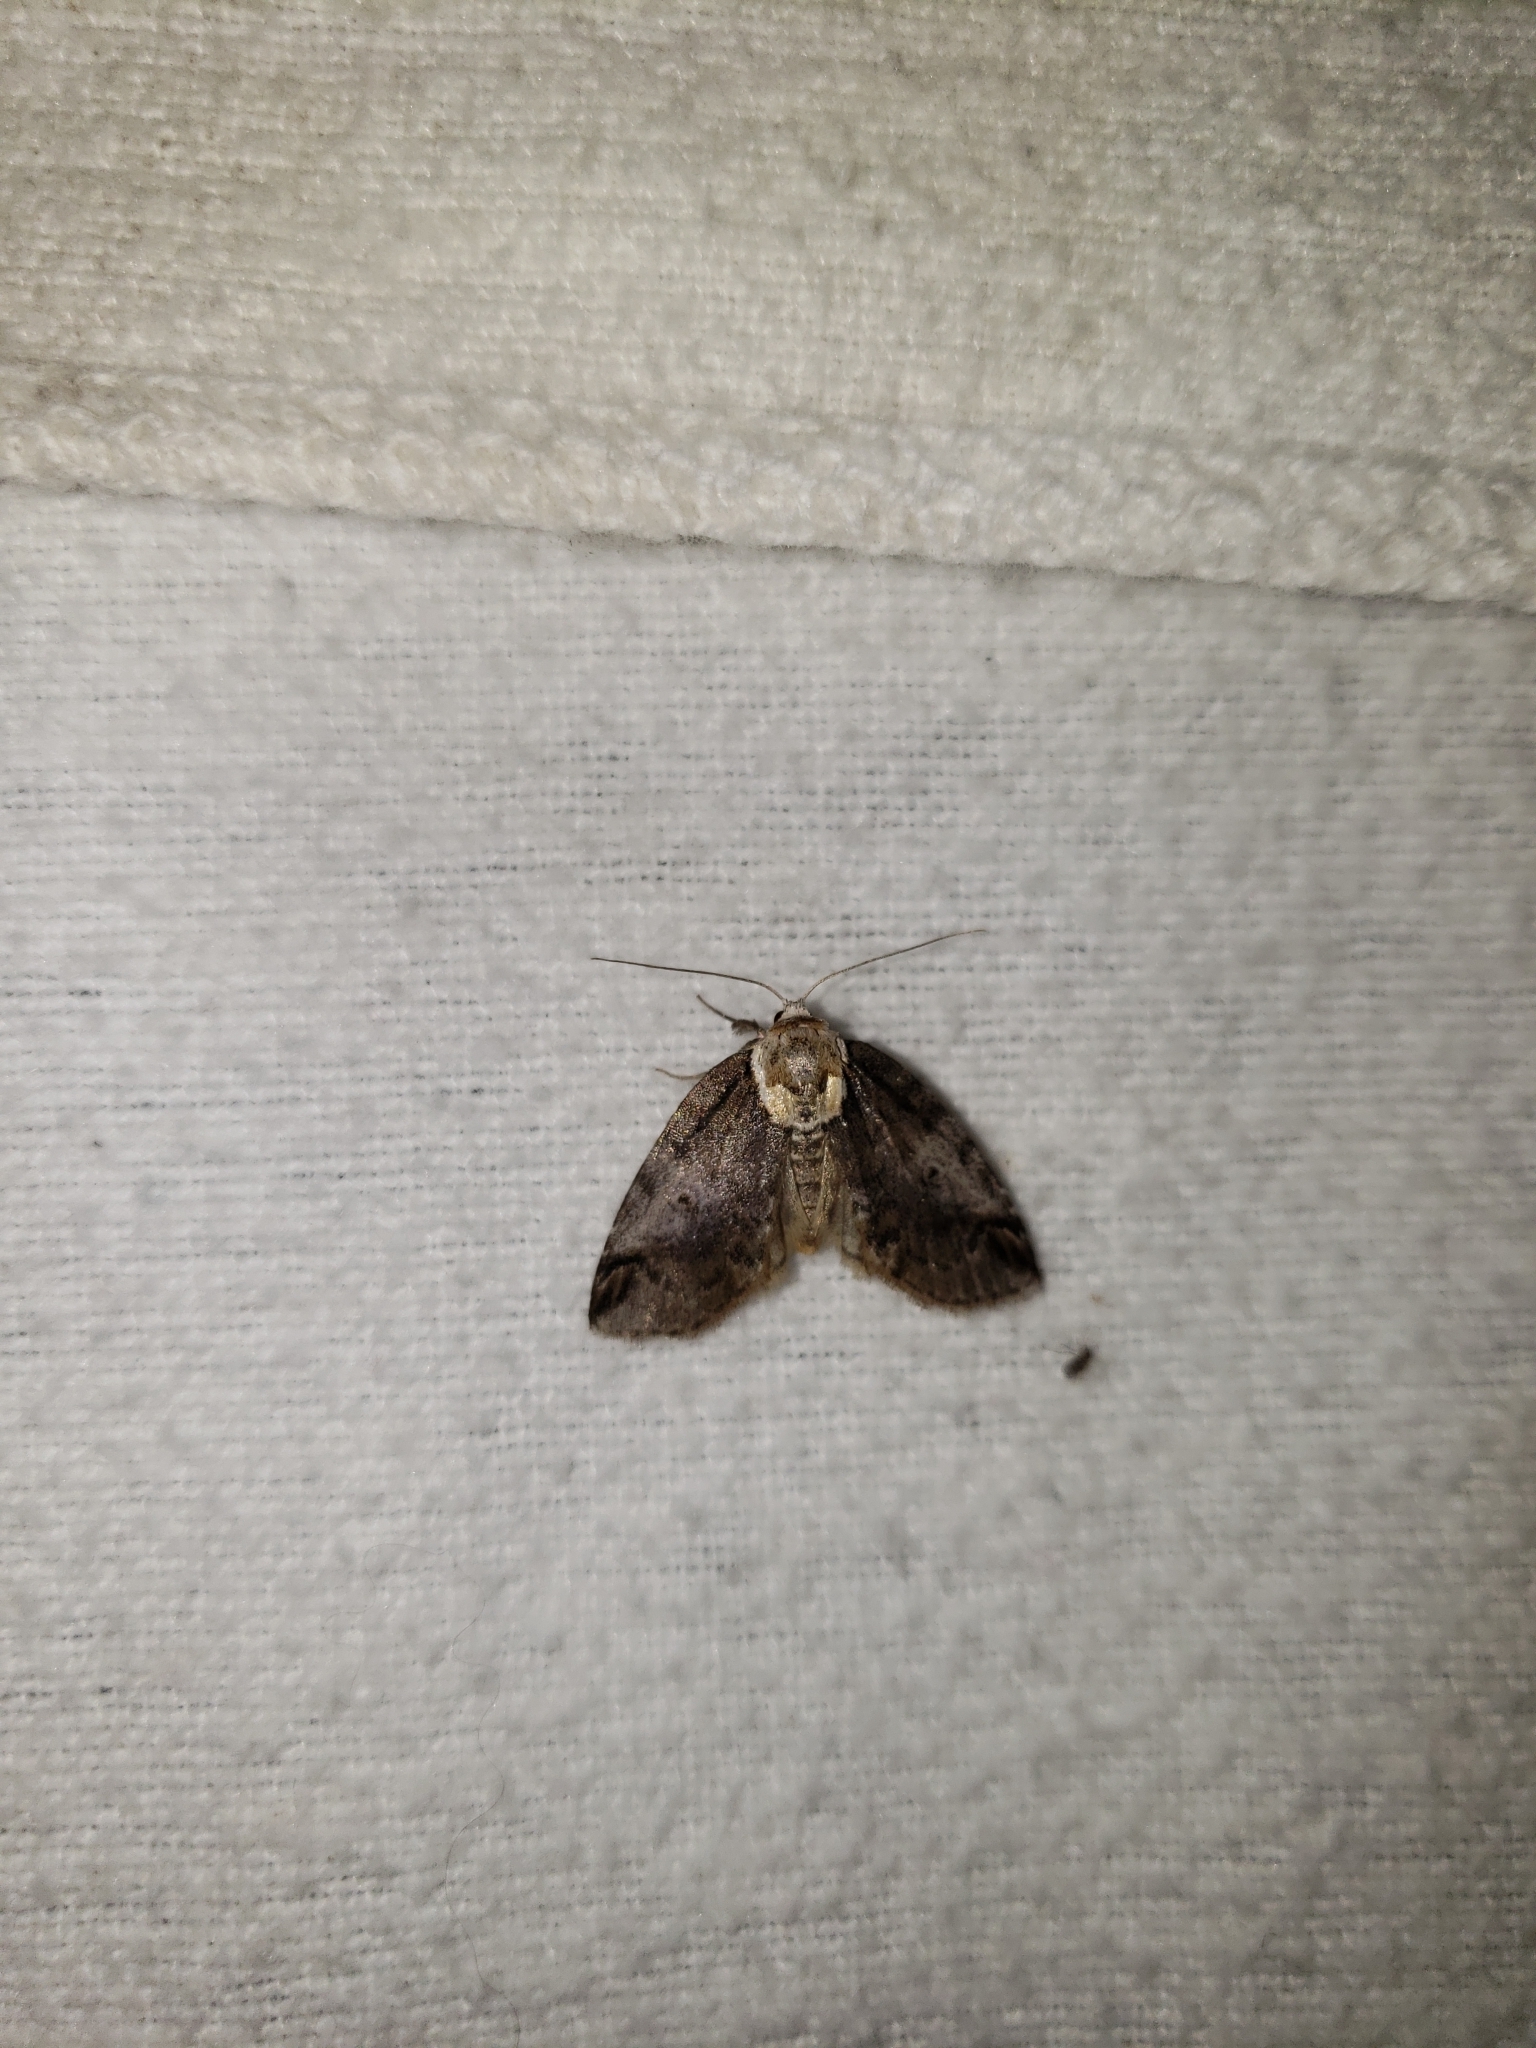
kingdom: Animalia
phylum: Arthropoda
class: Insecta
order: Lepidoptera
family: Nolidae
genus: Baileya
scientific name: Baileya ophthalmica
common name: Eyed baileya moth
